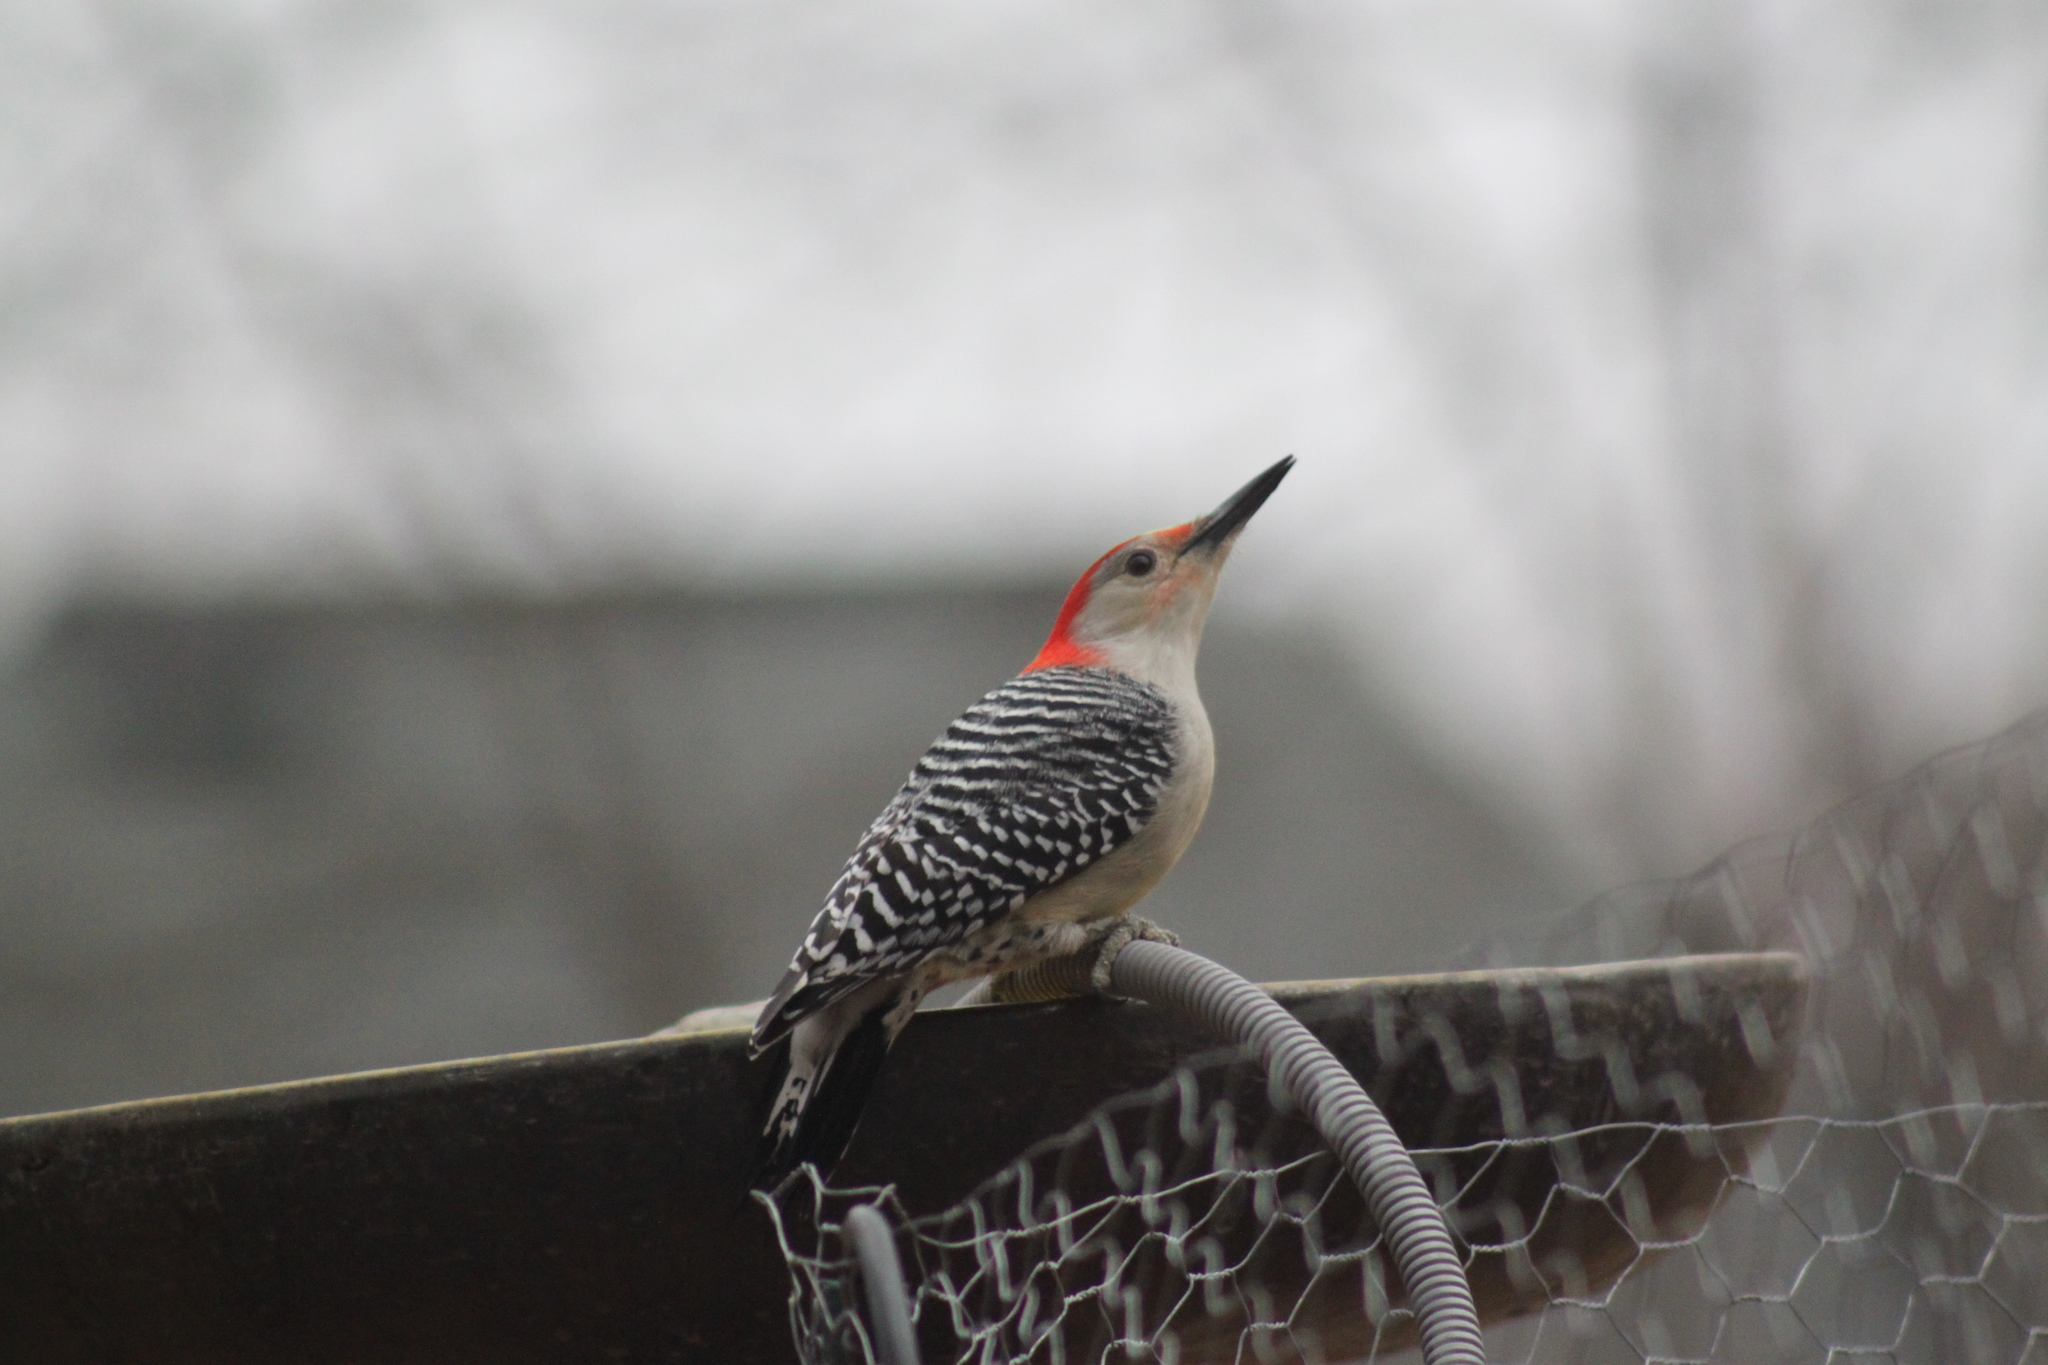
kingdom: Animalia
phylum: Chordata
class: Aves
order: Piciformes
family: Picidae
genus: Melanerpes
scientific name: Melanerpes carolinus
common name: Red-bellied woodpecker
